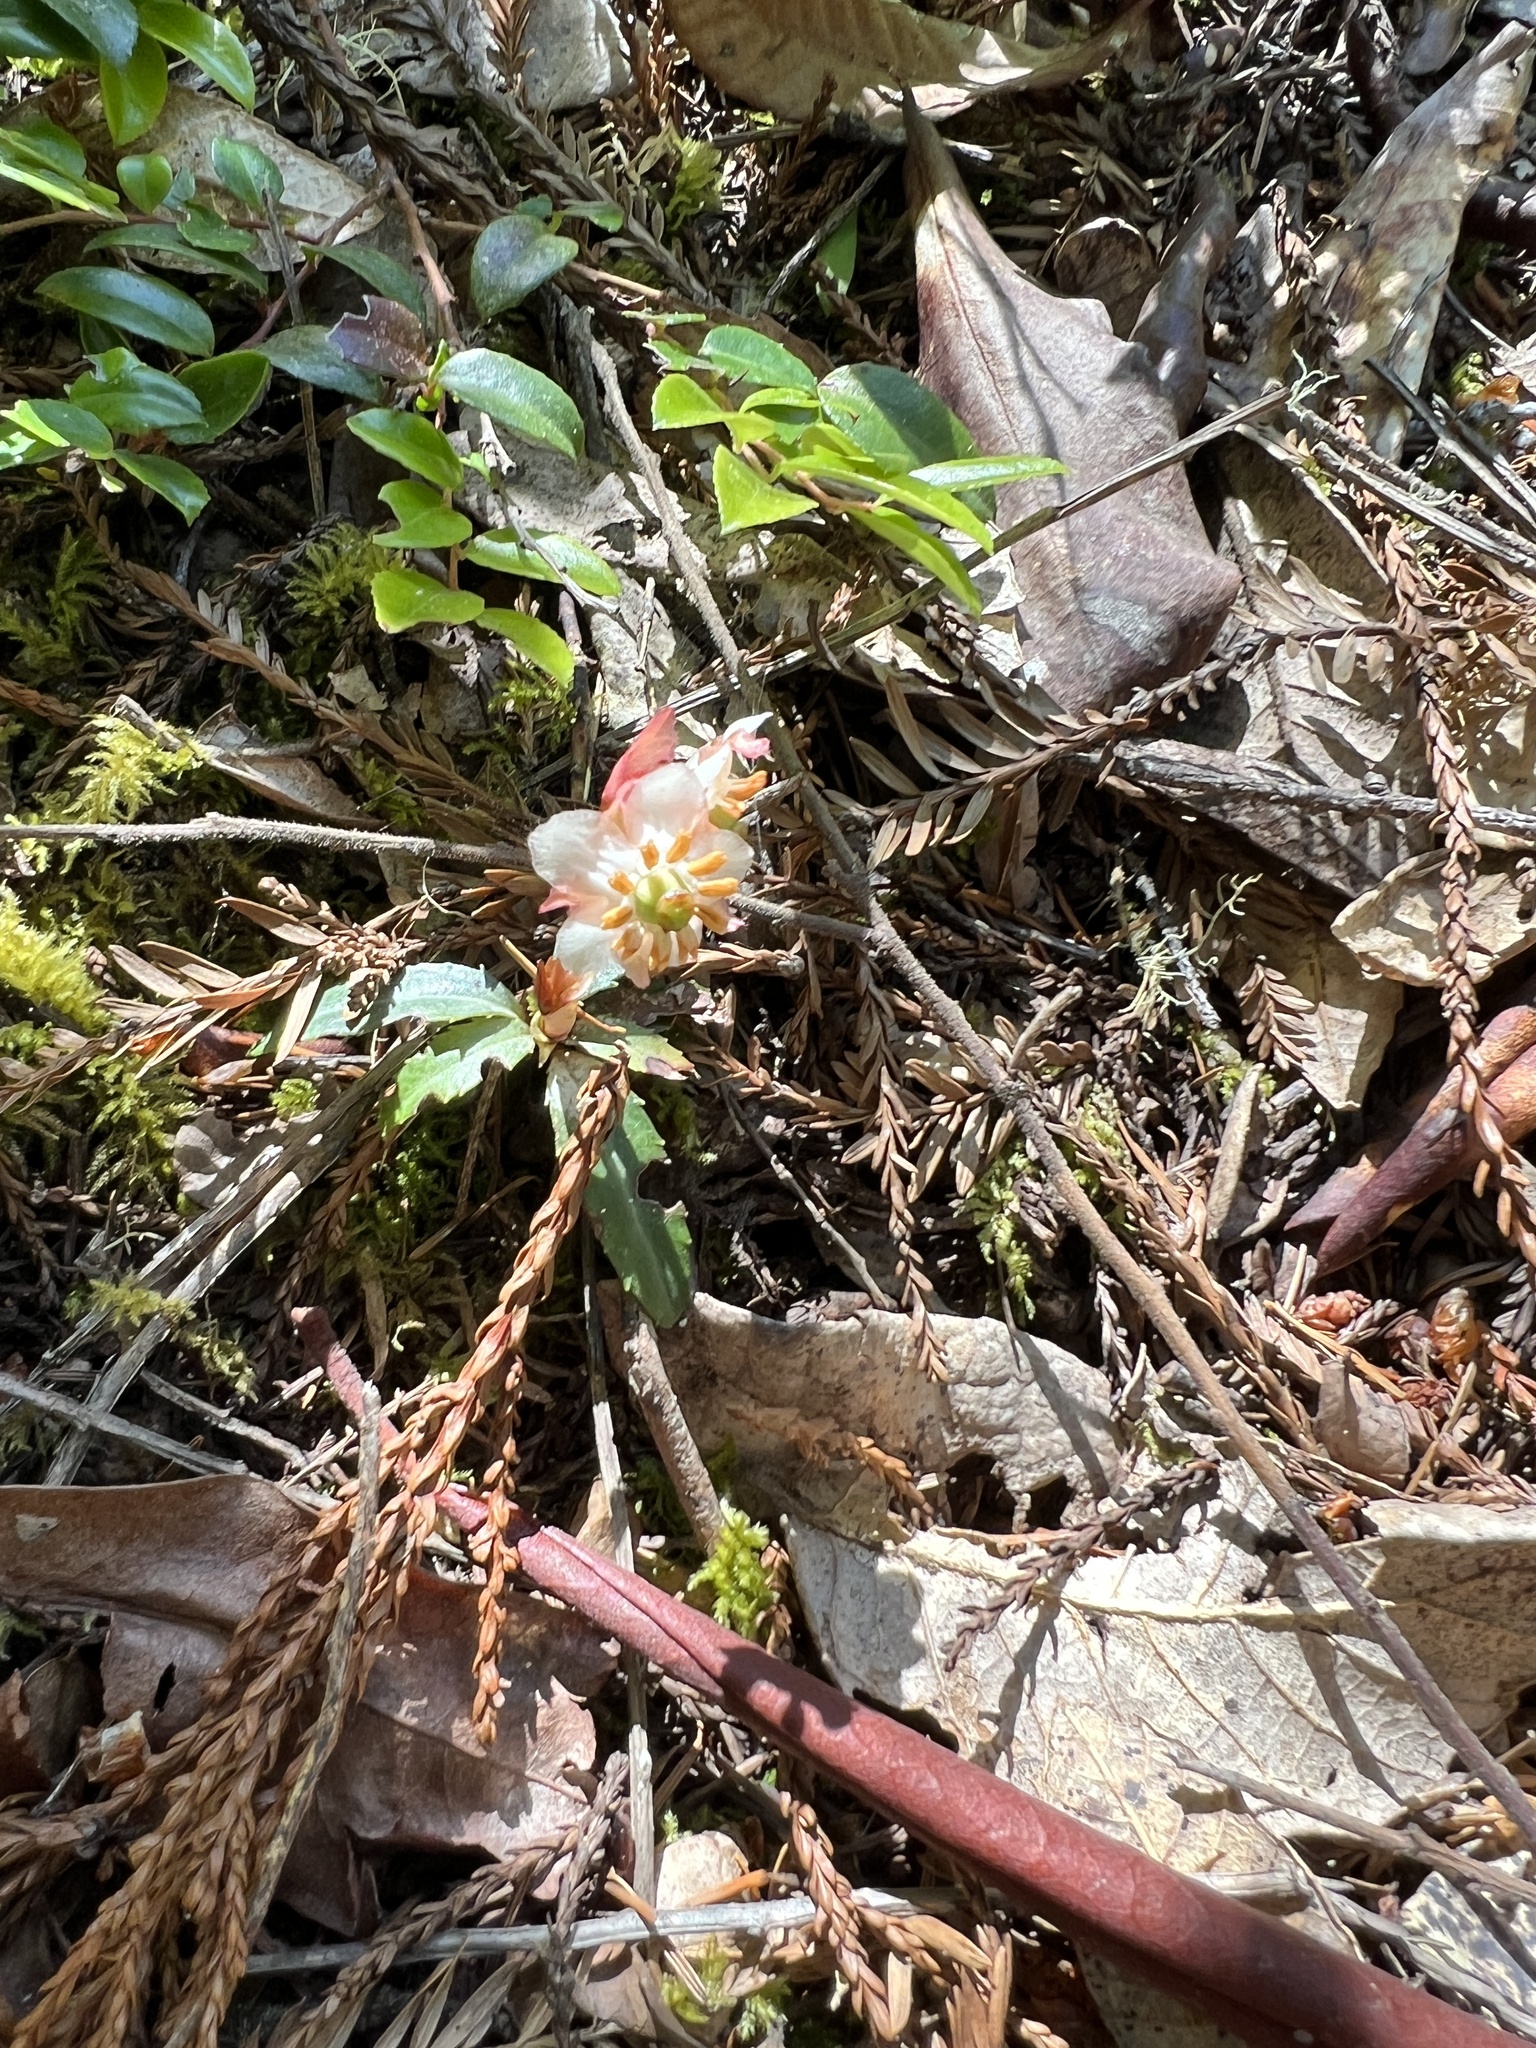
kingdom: Plantae
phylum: Tracheophyta
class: Magnoliopsida
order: Ericales
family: Ericaceae
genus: Chimaphila
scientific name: Chimaphila menziesii
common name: Menzies' pipsissewa
